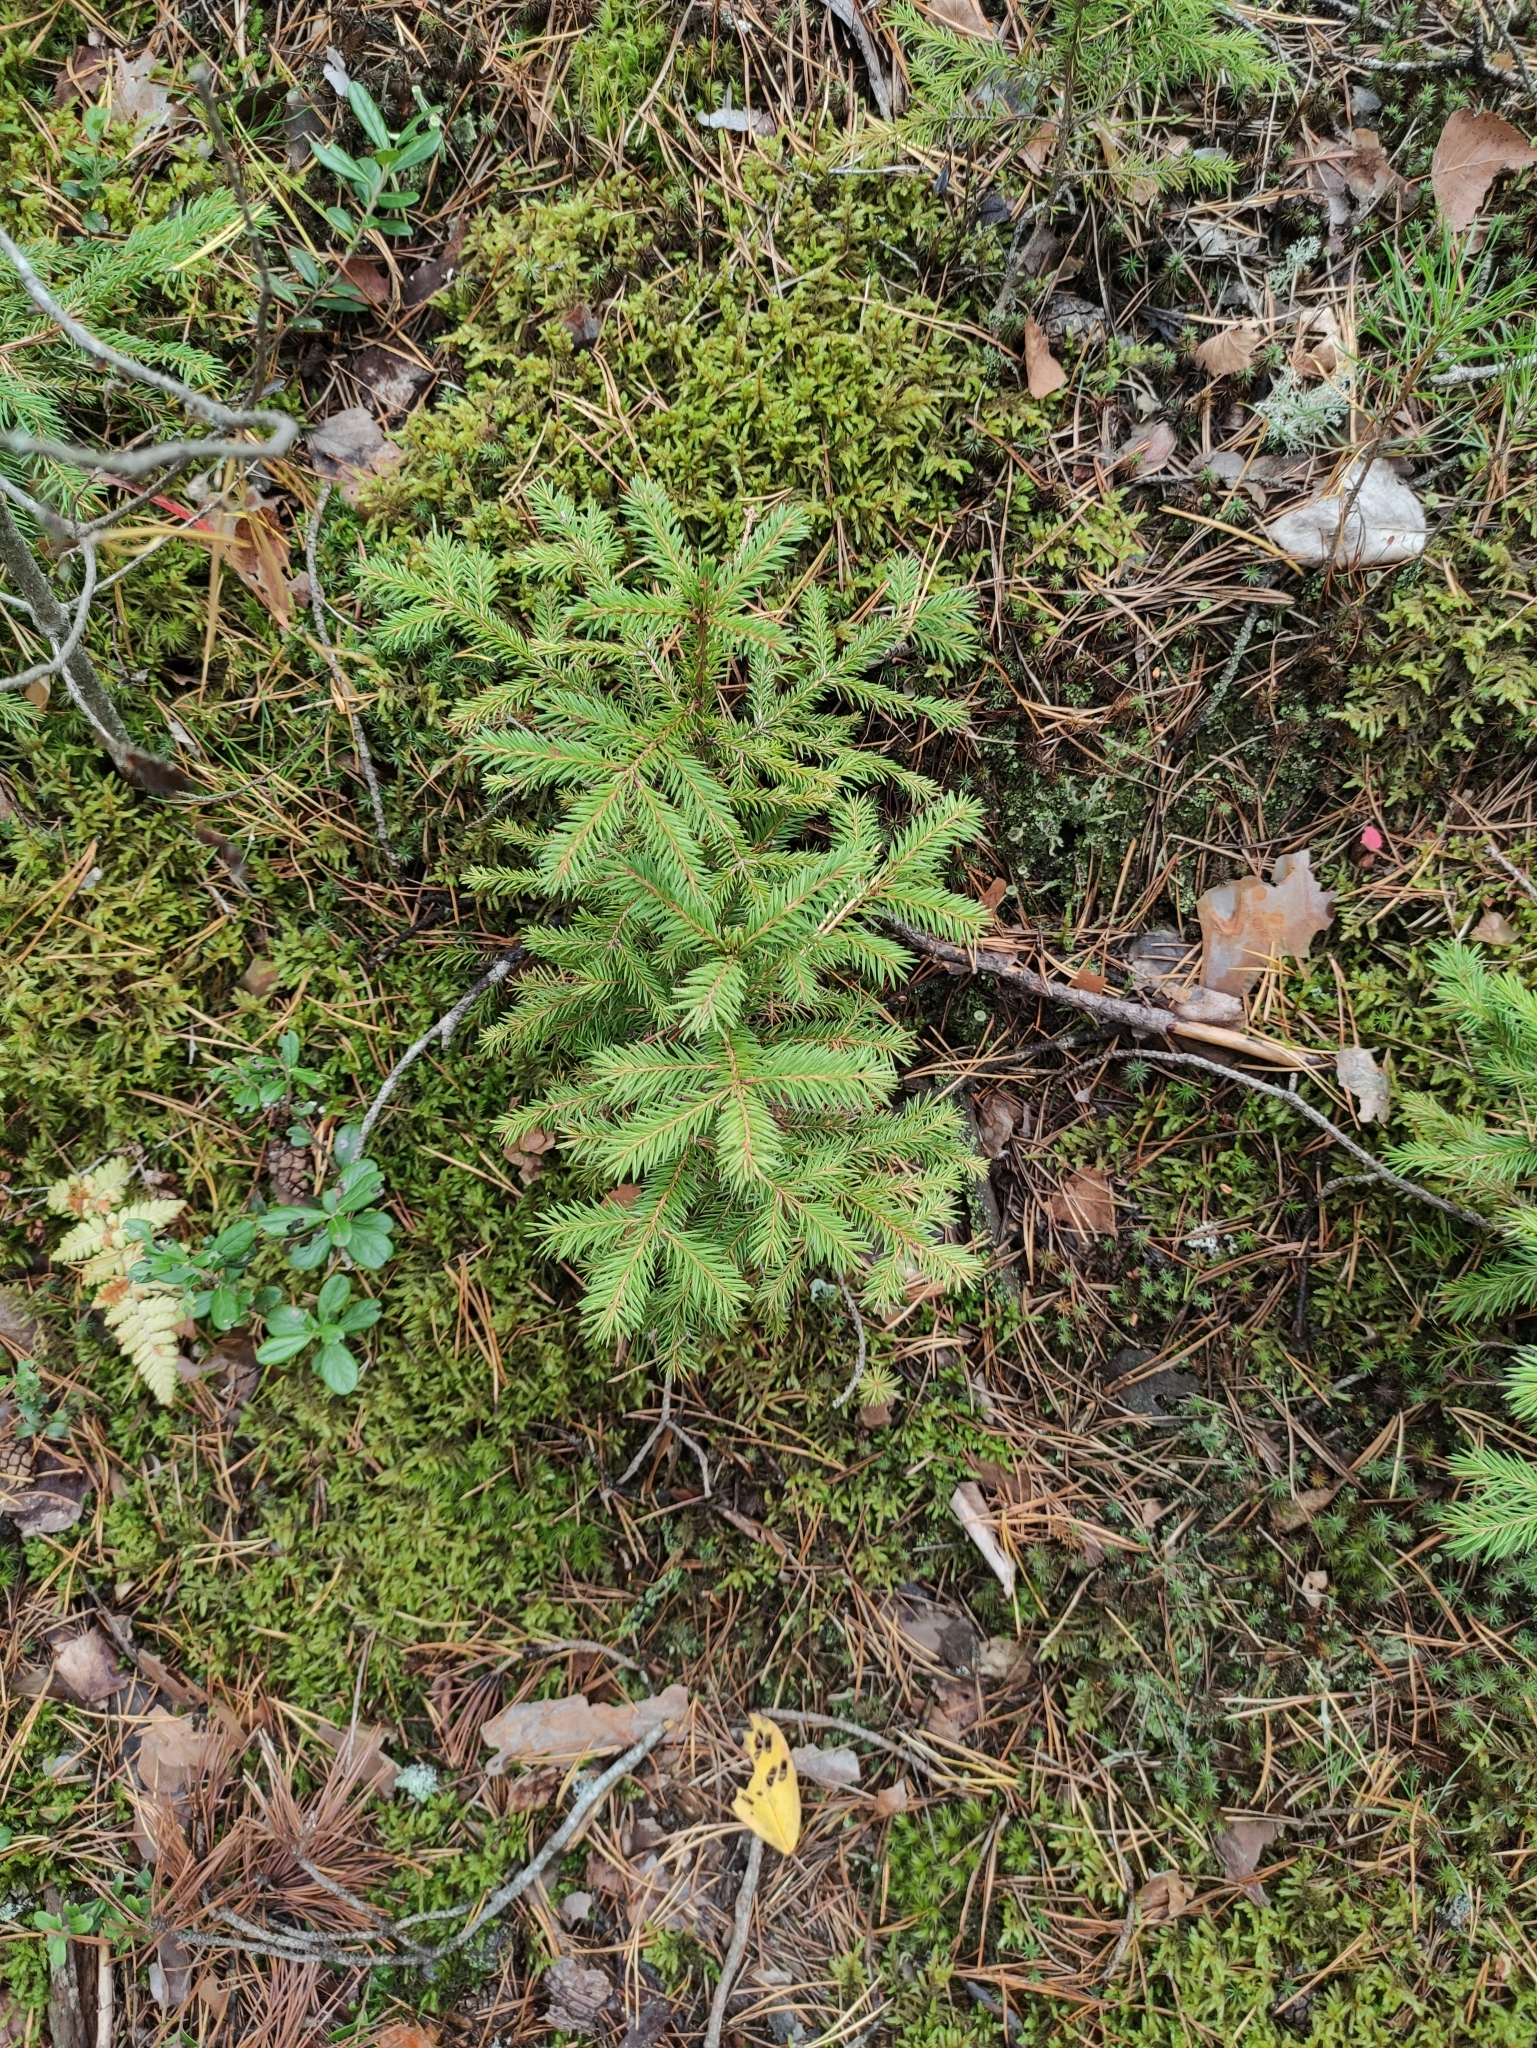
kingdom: Plantae
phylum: Tracheophyta
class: Pinopsida
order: Pinales
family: Pinaceae
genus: Picea
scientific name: Picea abies
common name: Norway spruce
